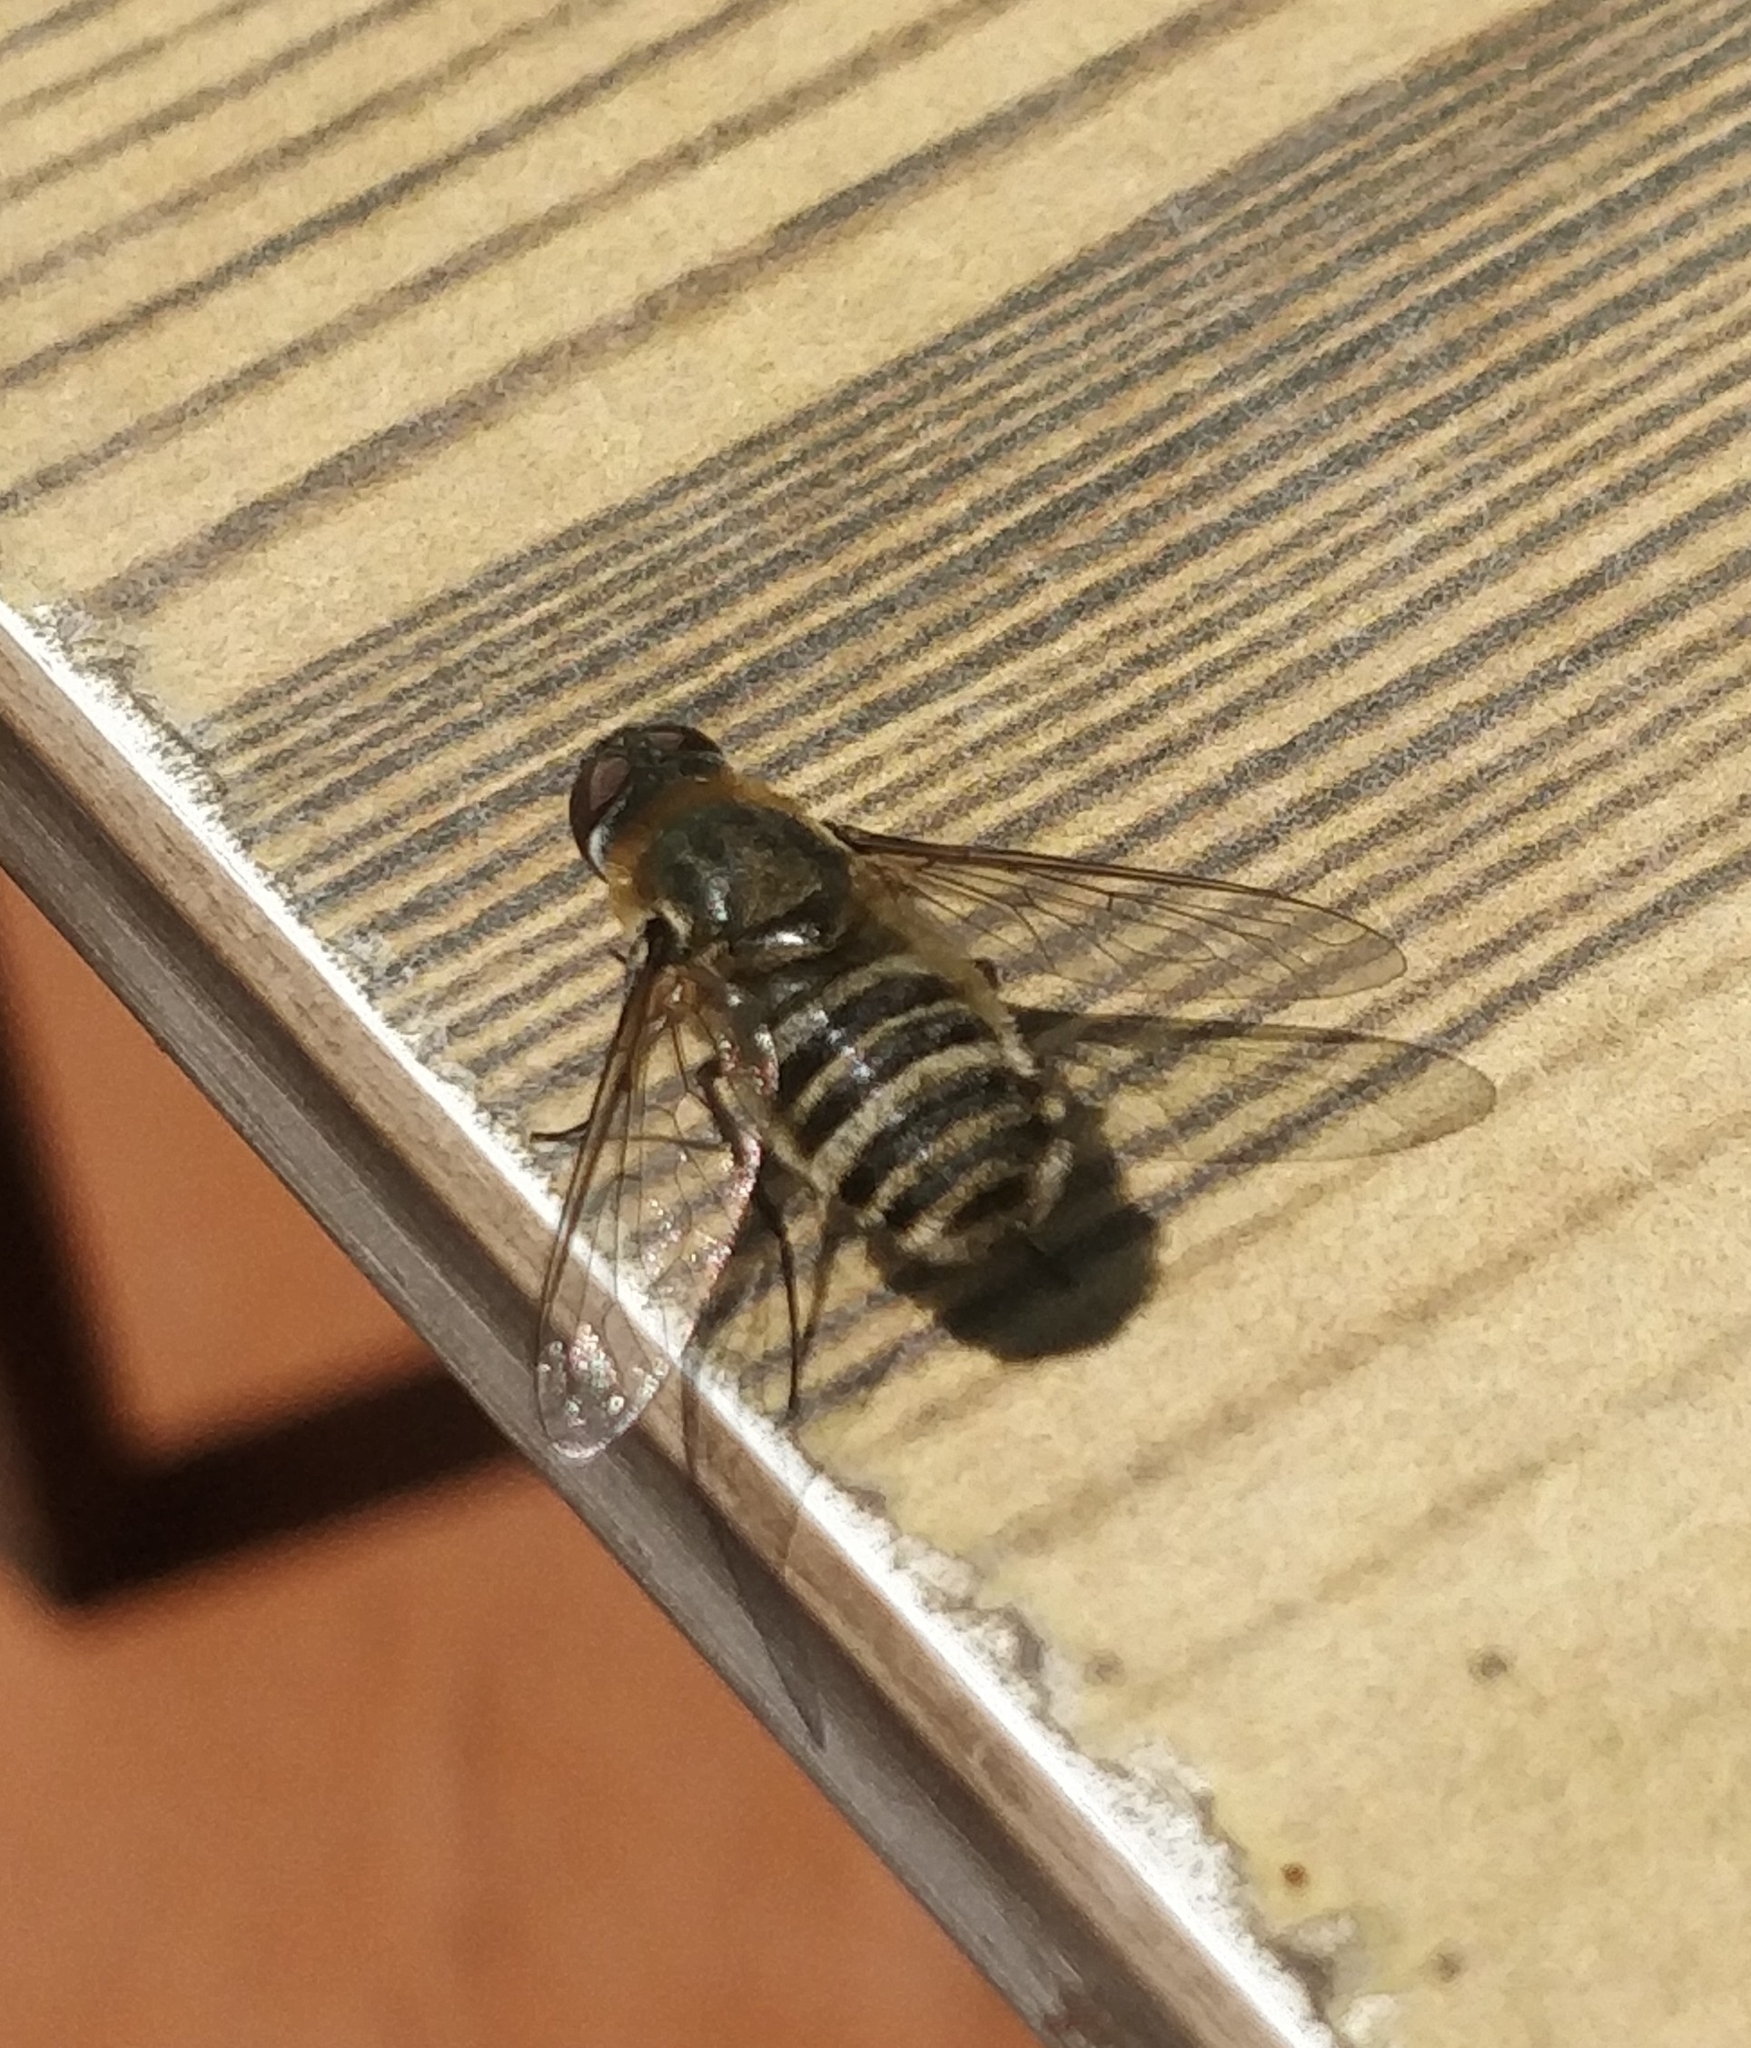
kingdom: Animalia
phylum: Arthropoda
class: Insecta
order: Diptera
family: Bombyliidae
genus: Villa
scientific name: Villa nigrifrons
